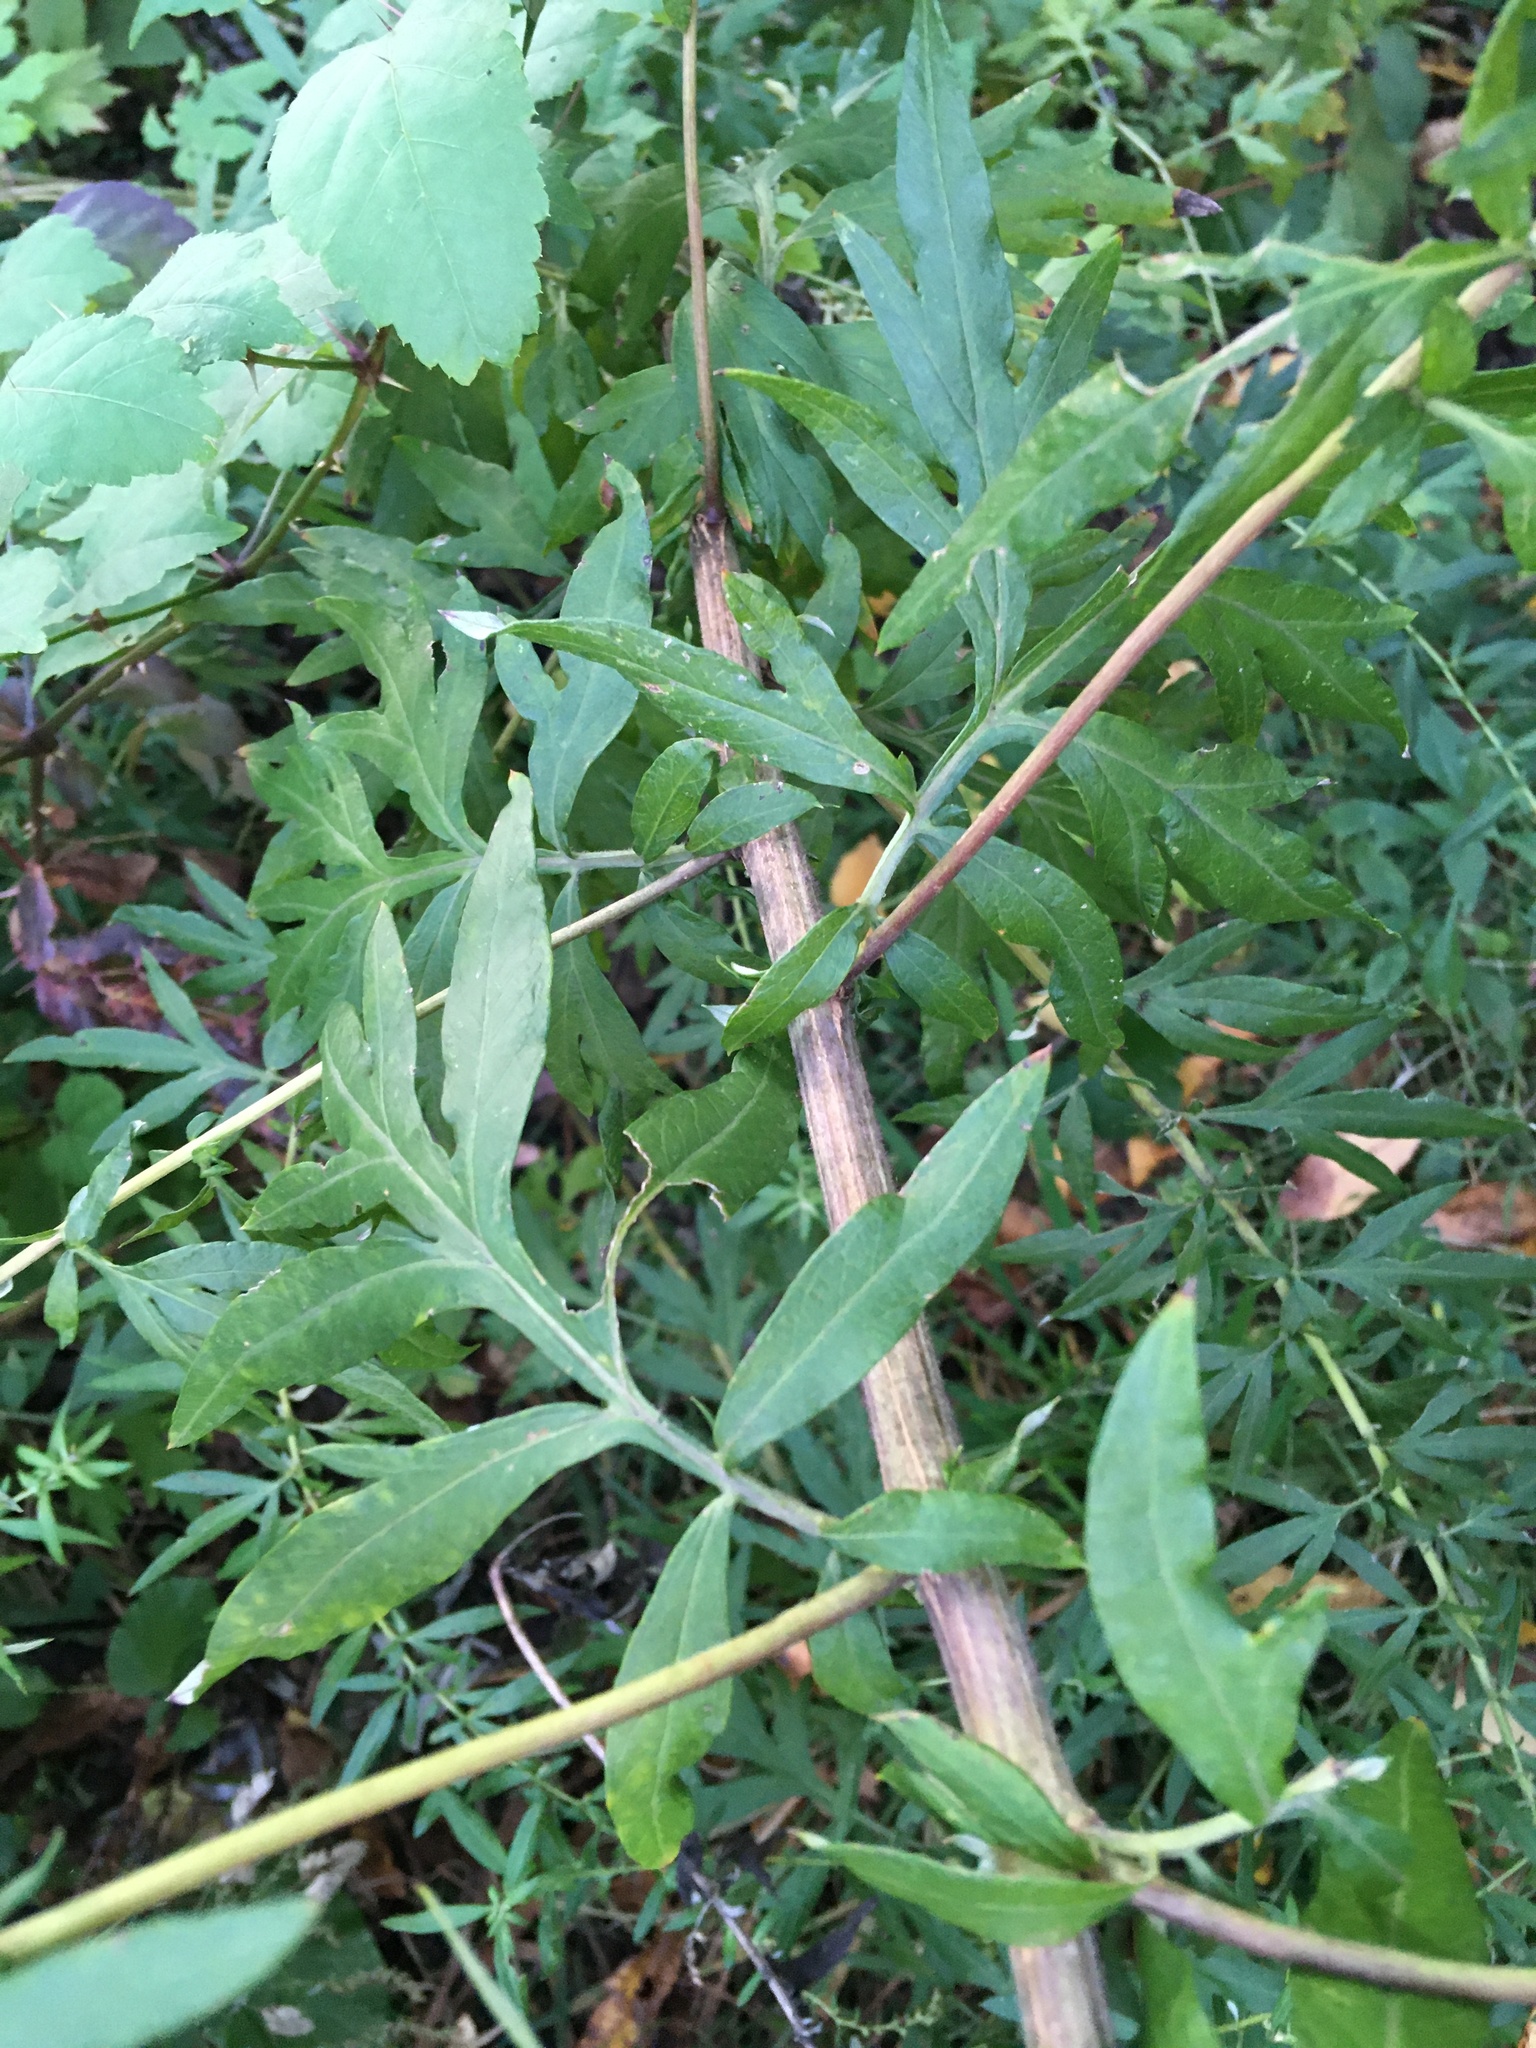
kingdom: Plantae
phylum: Tracheophyta
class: Magnoliopsida
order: Asterales
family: Asteraceae
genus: Artemisia
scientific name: Artemisia vulgaris
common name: Mugwort
